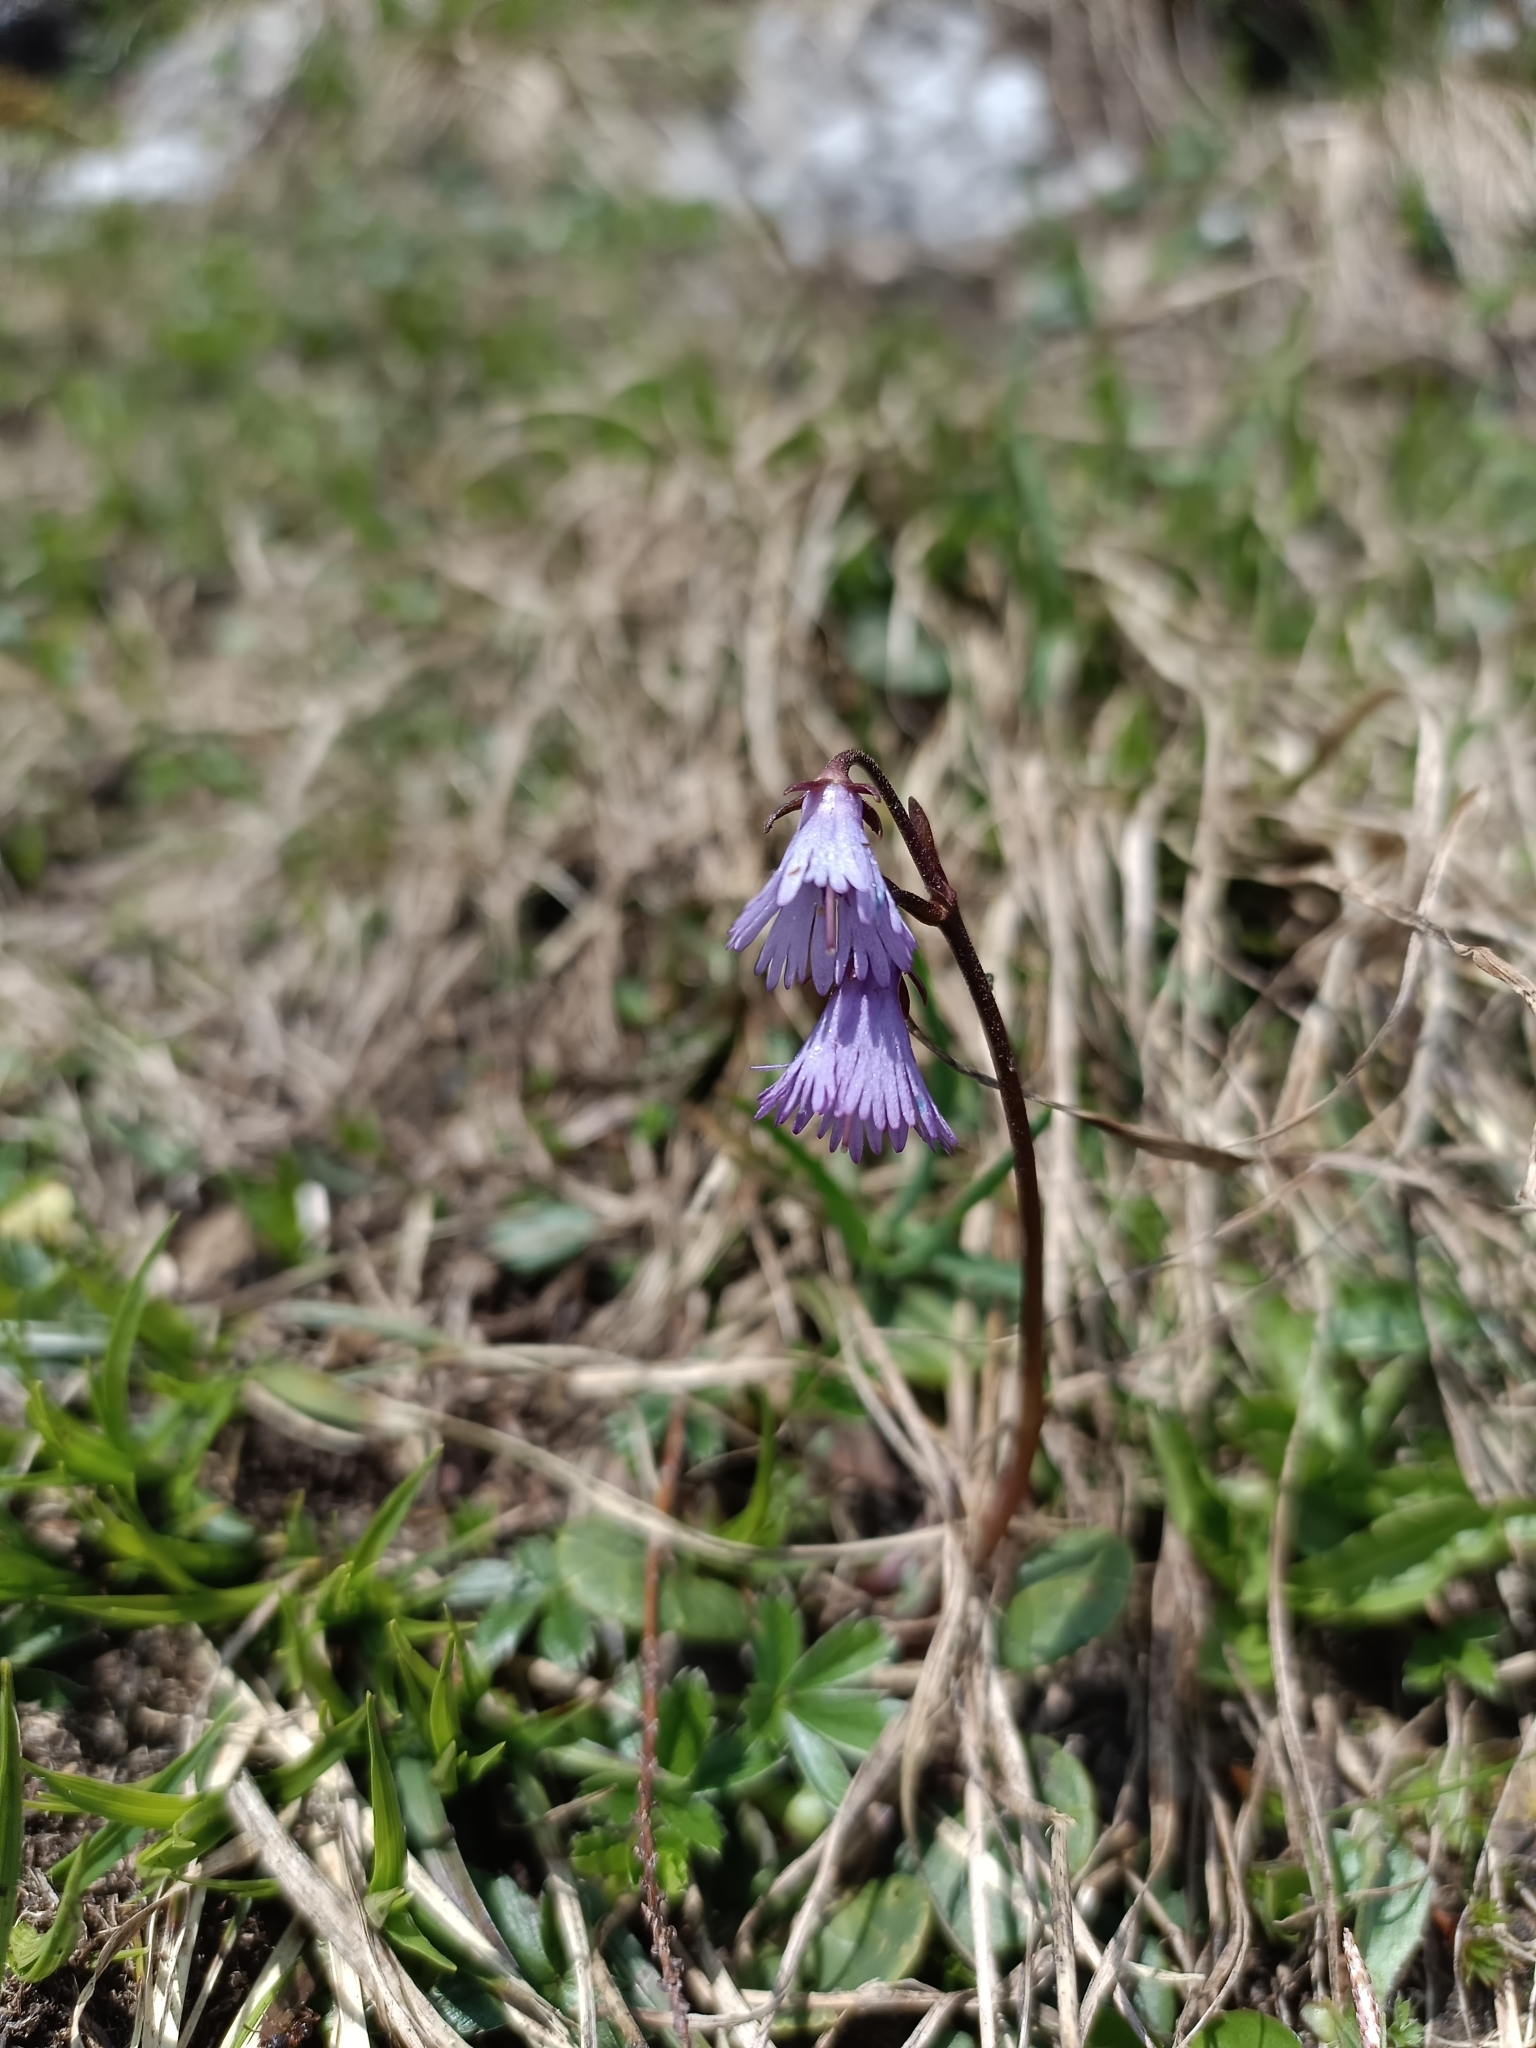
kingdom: Plantae
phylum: Tracheophyta
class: Magnoliopsida
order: Ericales
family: Primulaceae
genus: Soldanella
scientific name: Soldanella alpina
